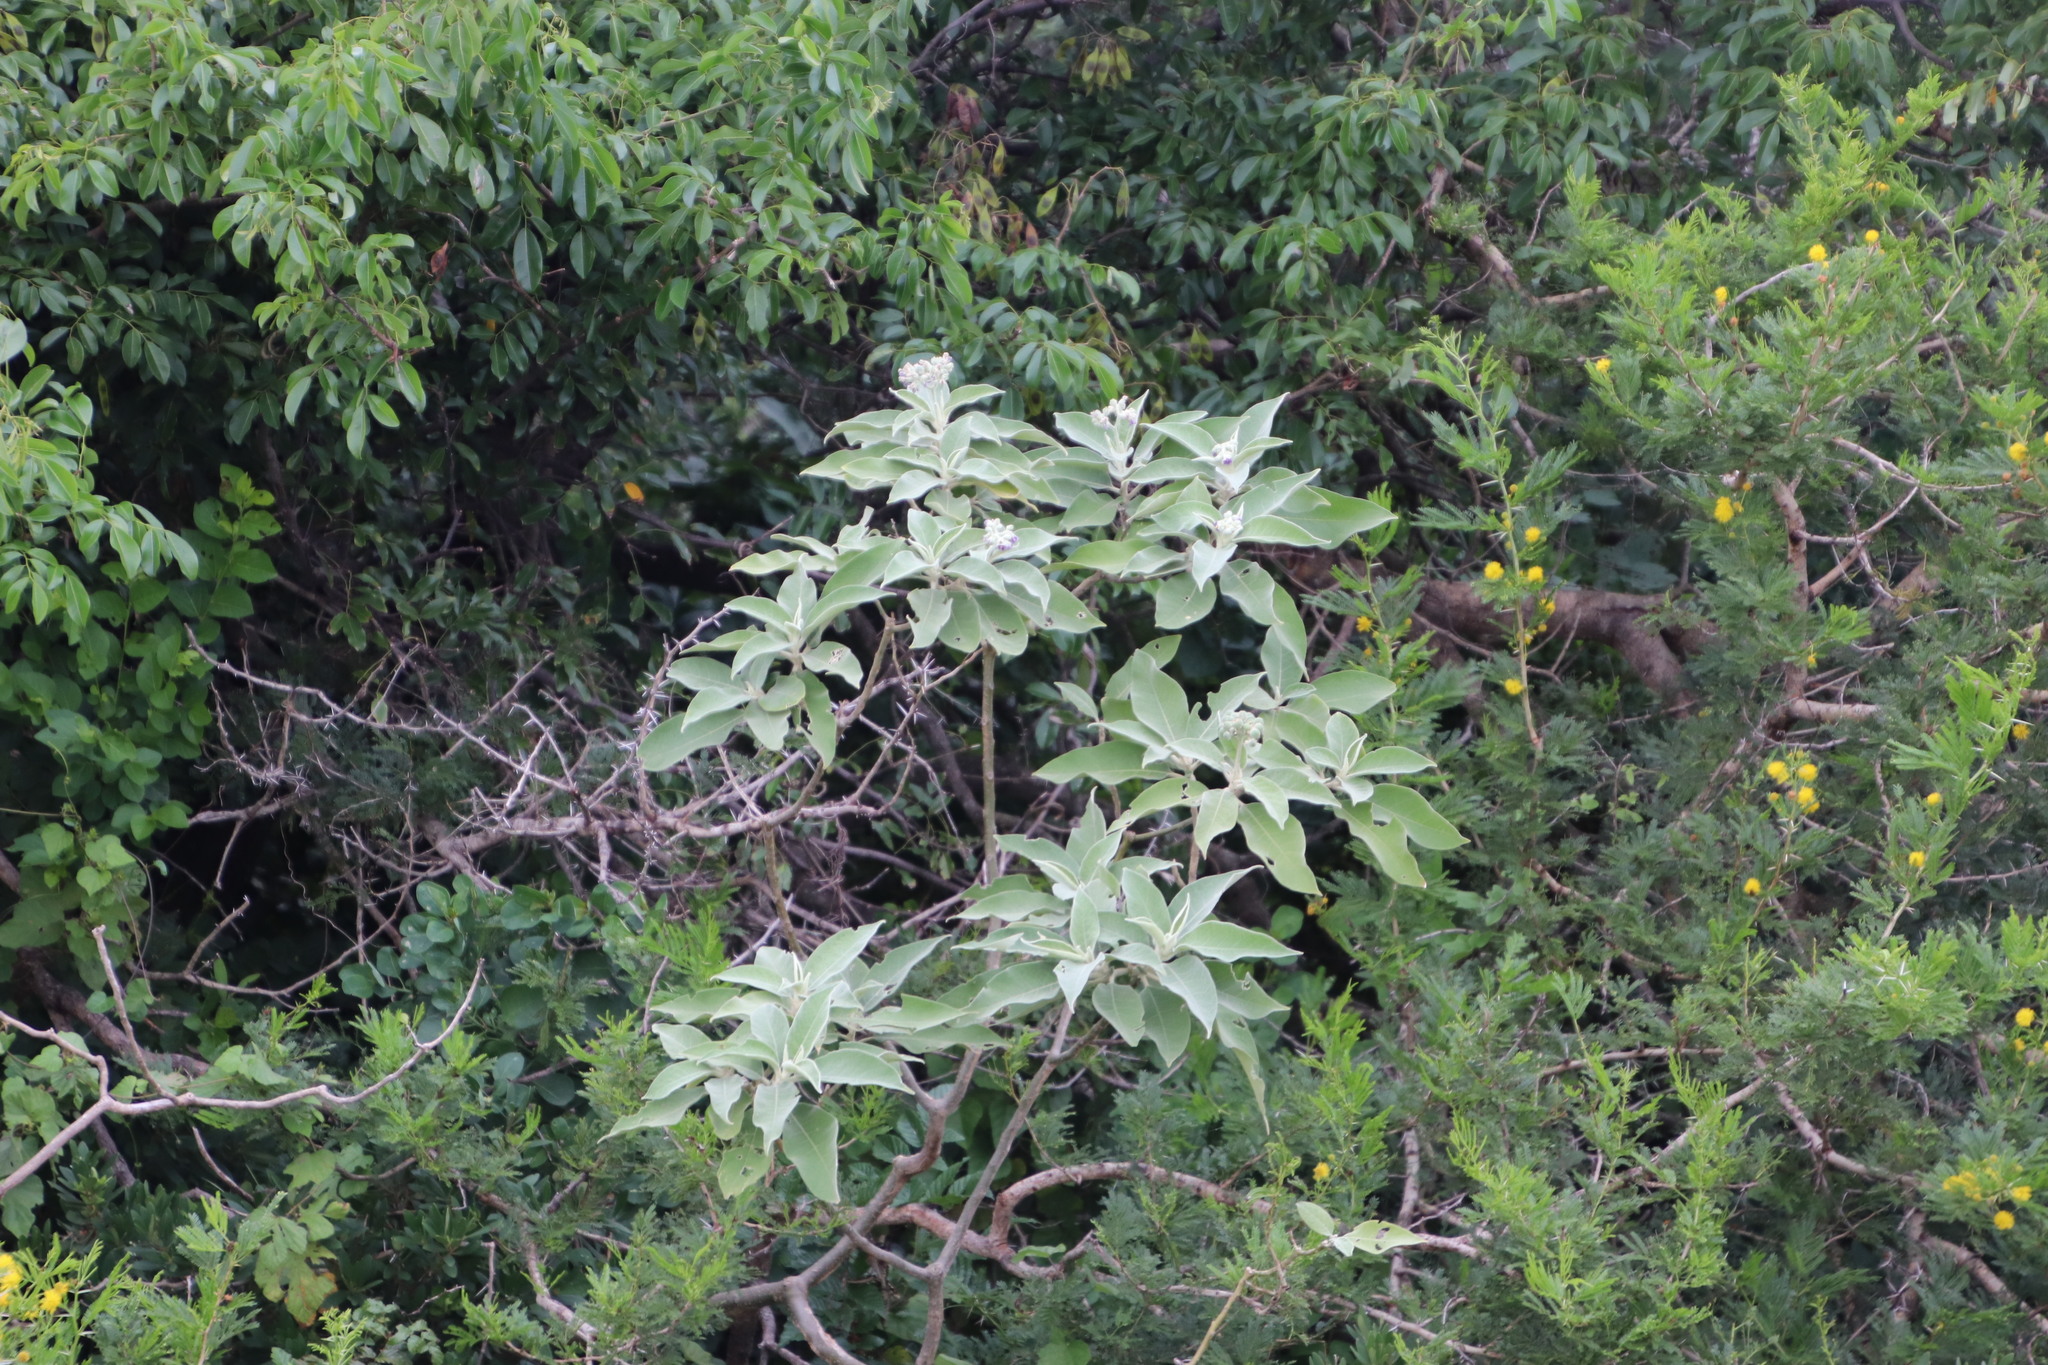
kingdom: Plantae
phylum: Tracheophyta
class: Magnoliopsida
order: Solanales
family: Solanaceae
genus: Solanum
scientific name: Solanum mauritianum
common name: Earleaf nightshade
